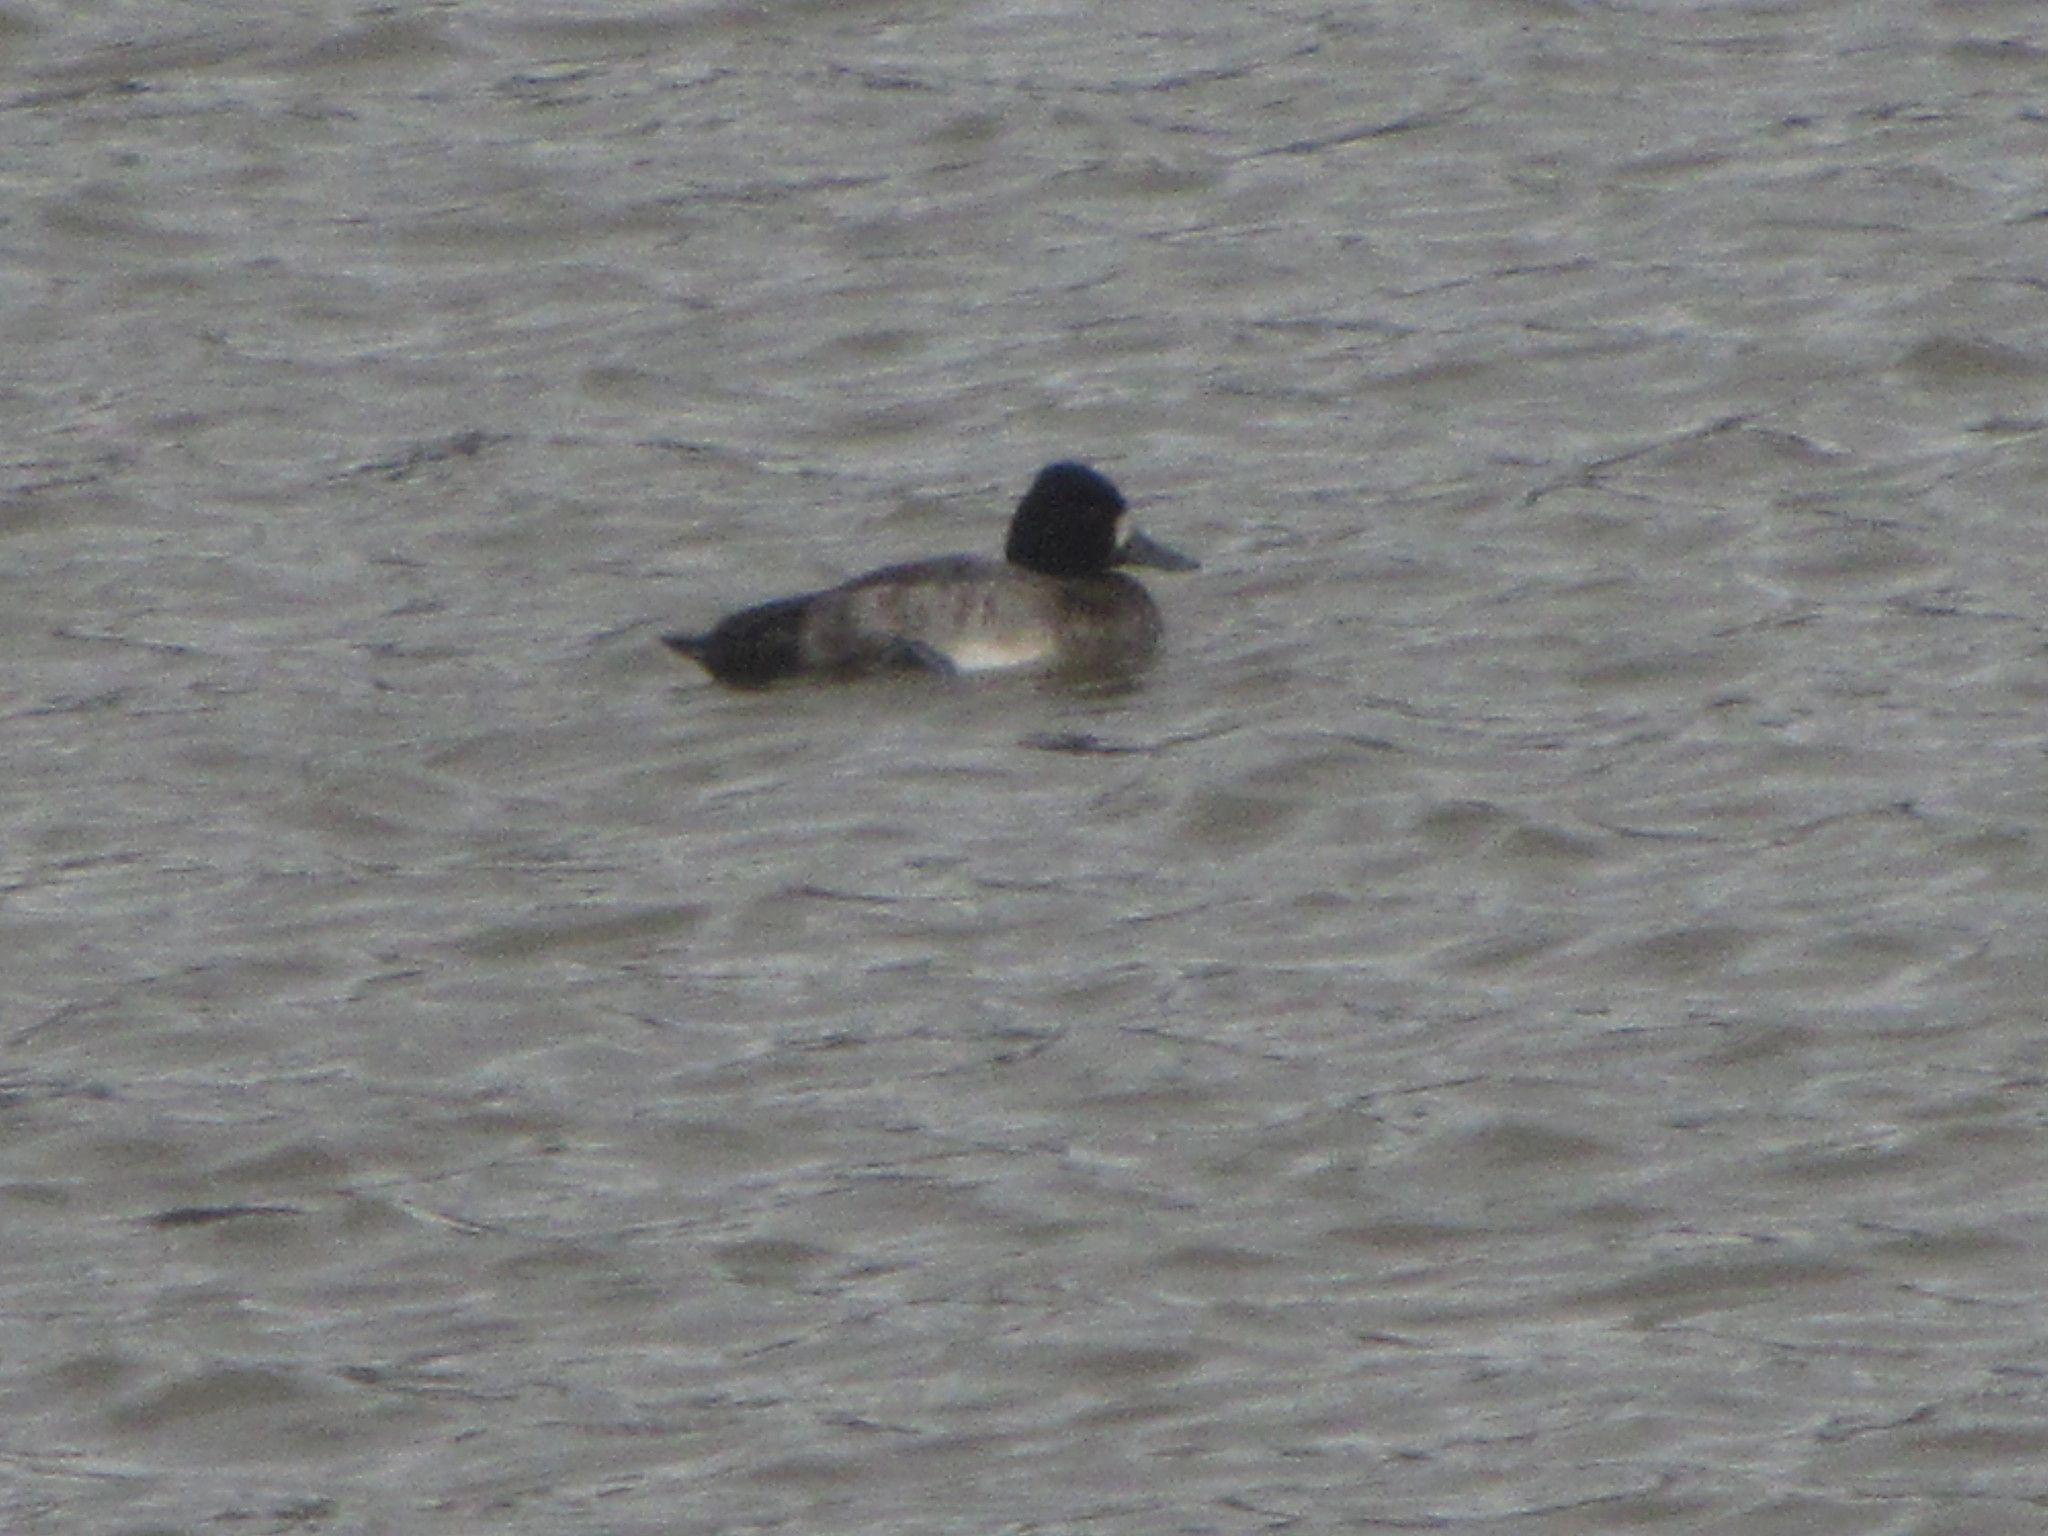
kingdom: Animalia
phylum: Chordata
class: Aves
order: Anseriformes
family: Anatidae
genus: Aythya
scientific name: Aythya affinis
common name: Lesser scaup
